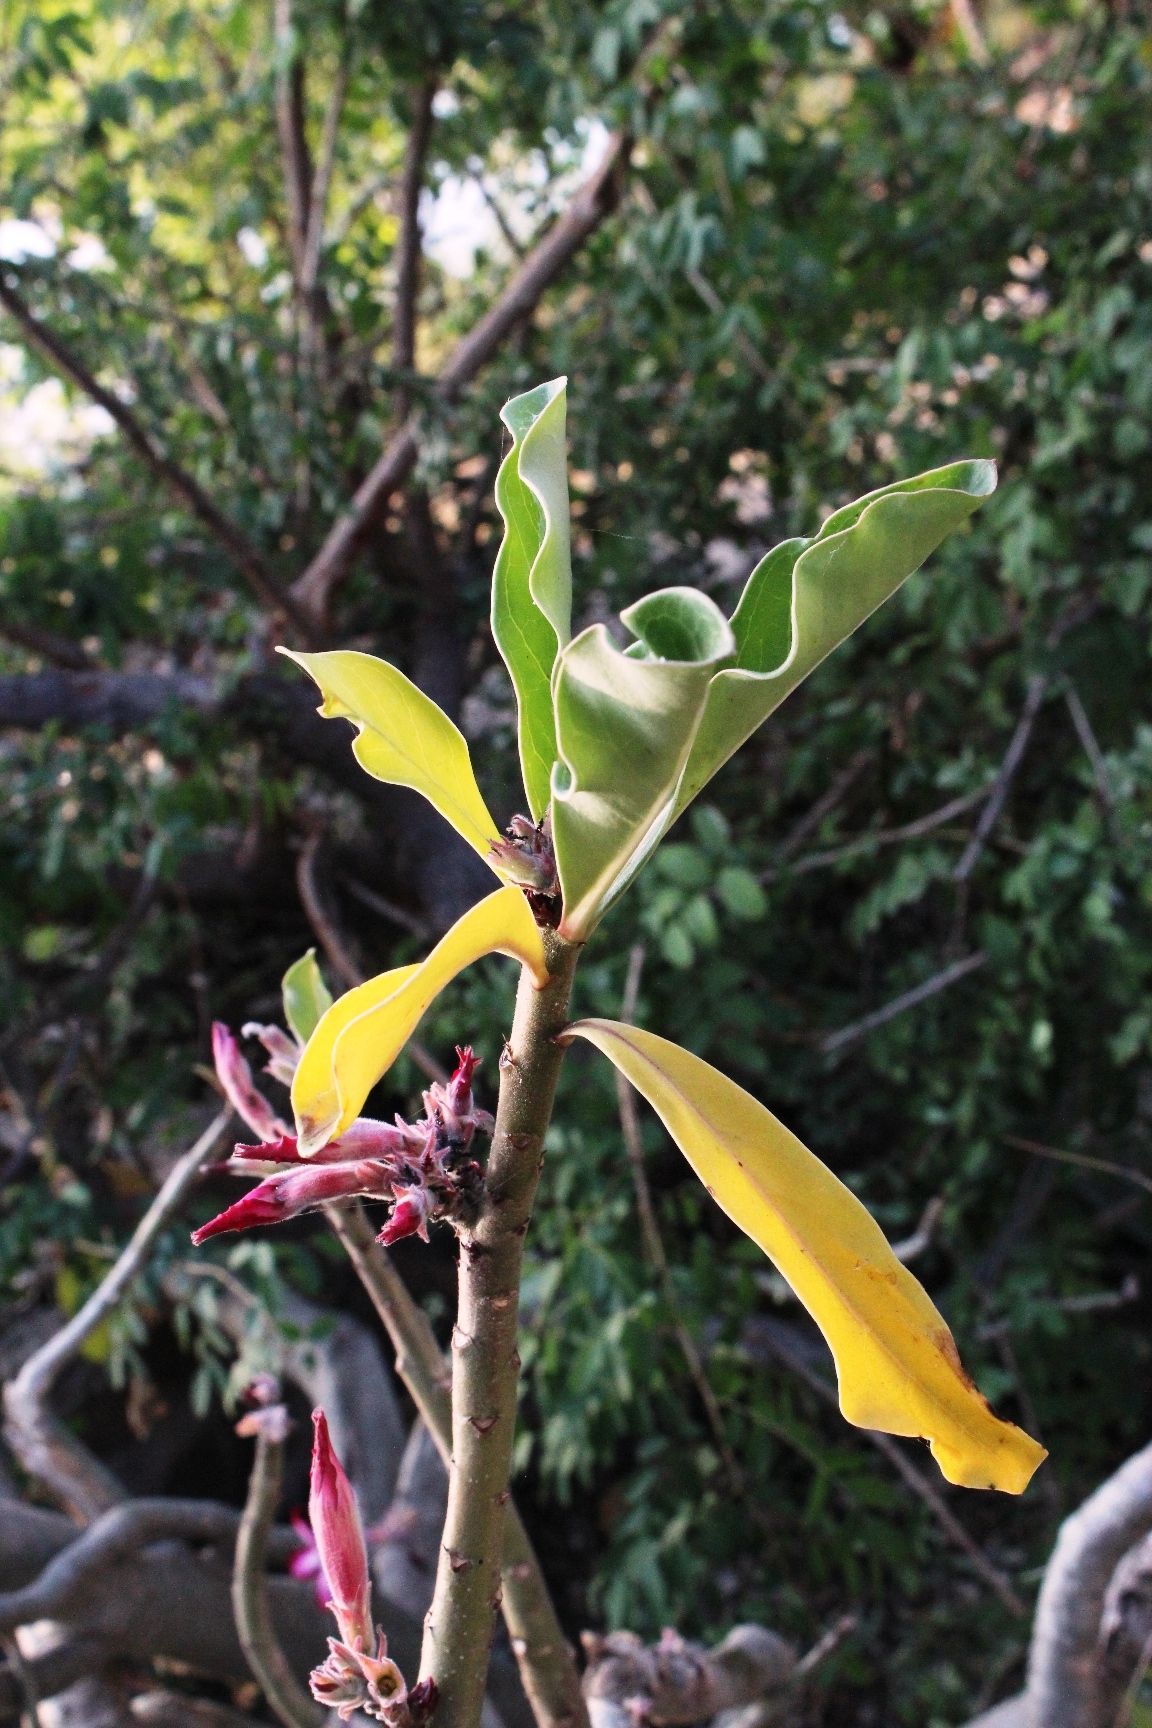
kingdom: Plantae
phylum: Tracheophyta
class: Magnoliopsida
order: Gentianales
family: Apocynaceae
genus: Adenium
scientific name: Adenium obesum
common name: Desert-rose
